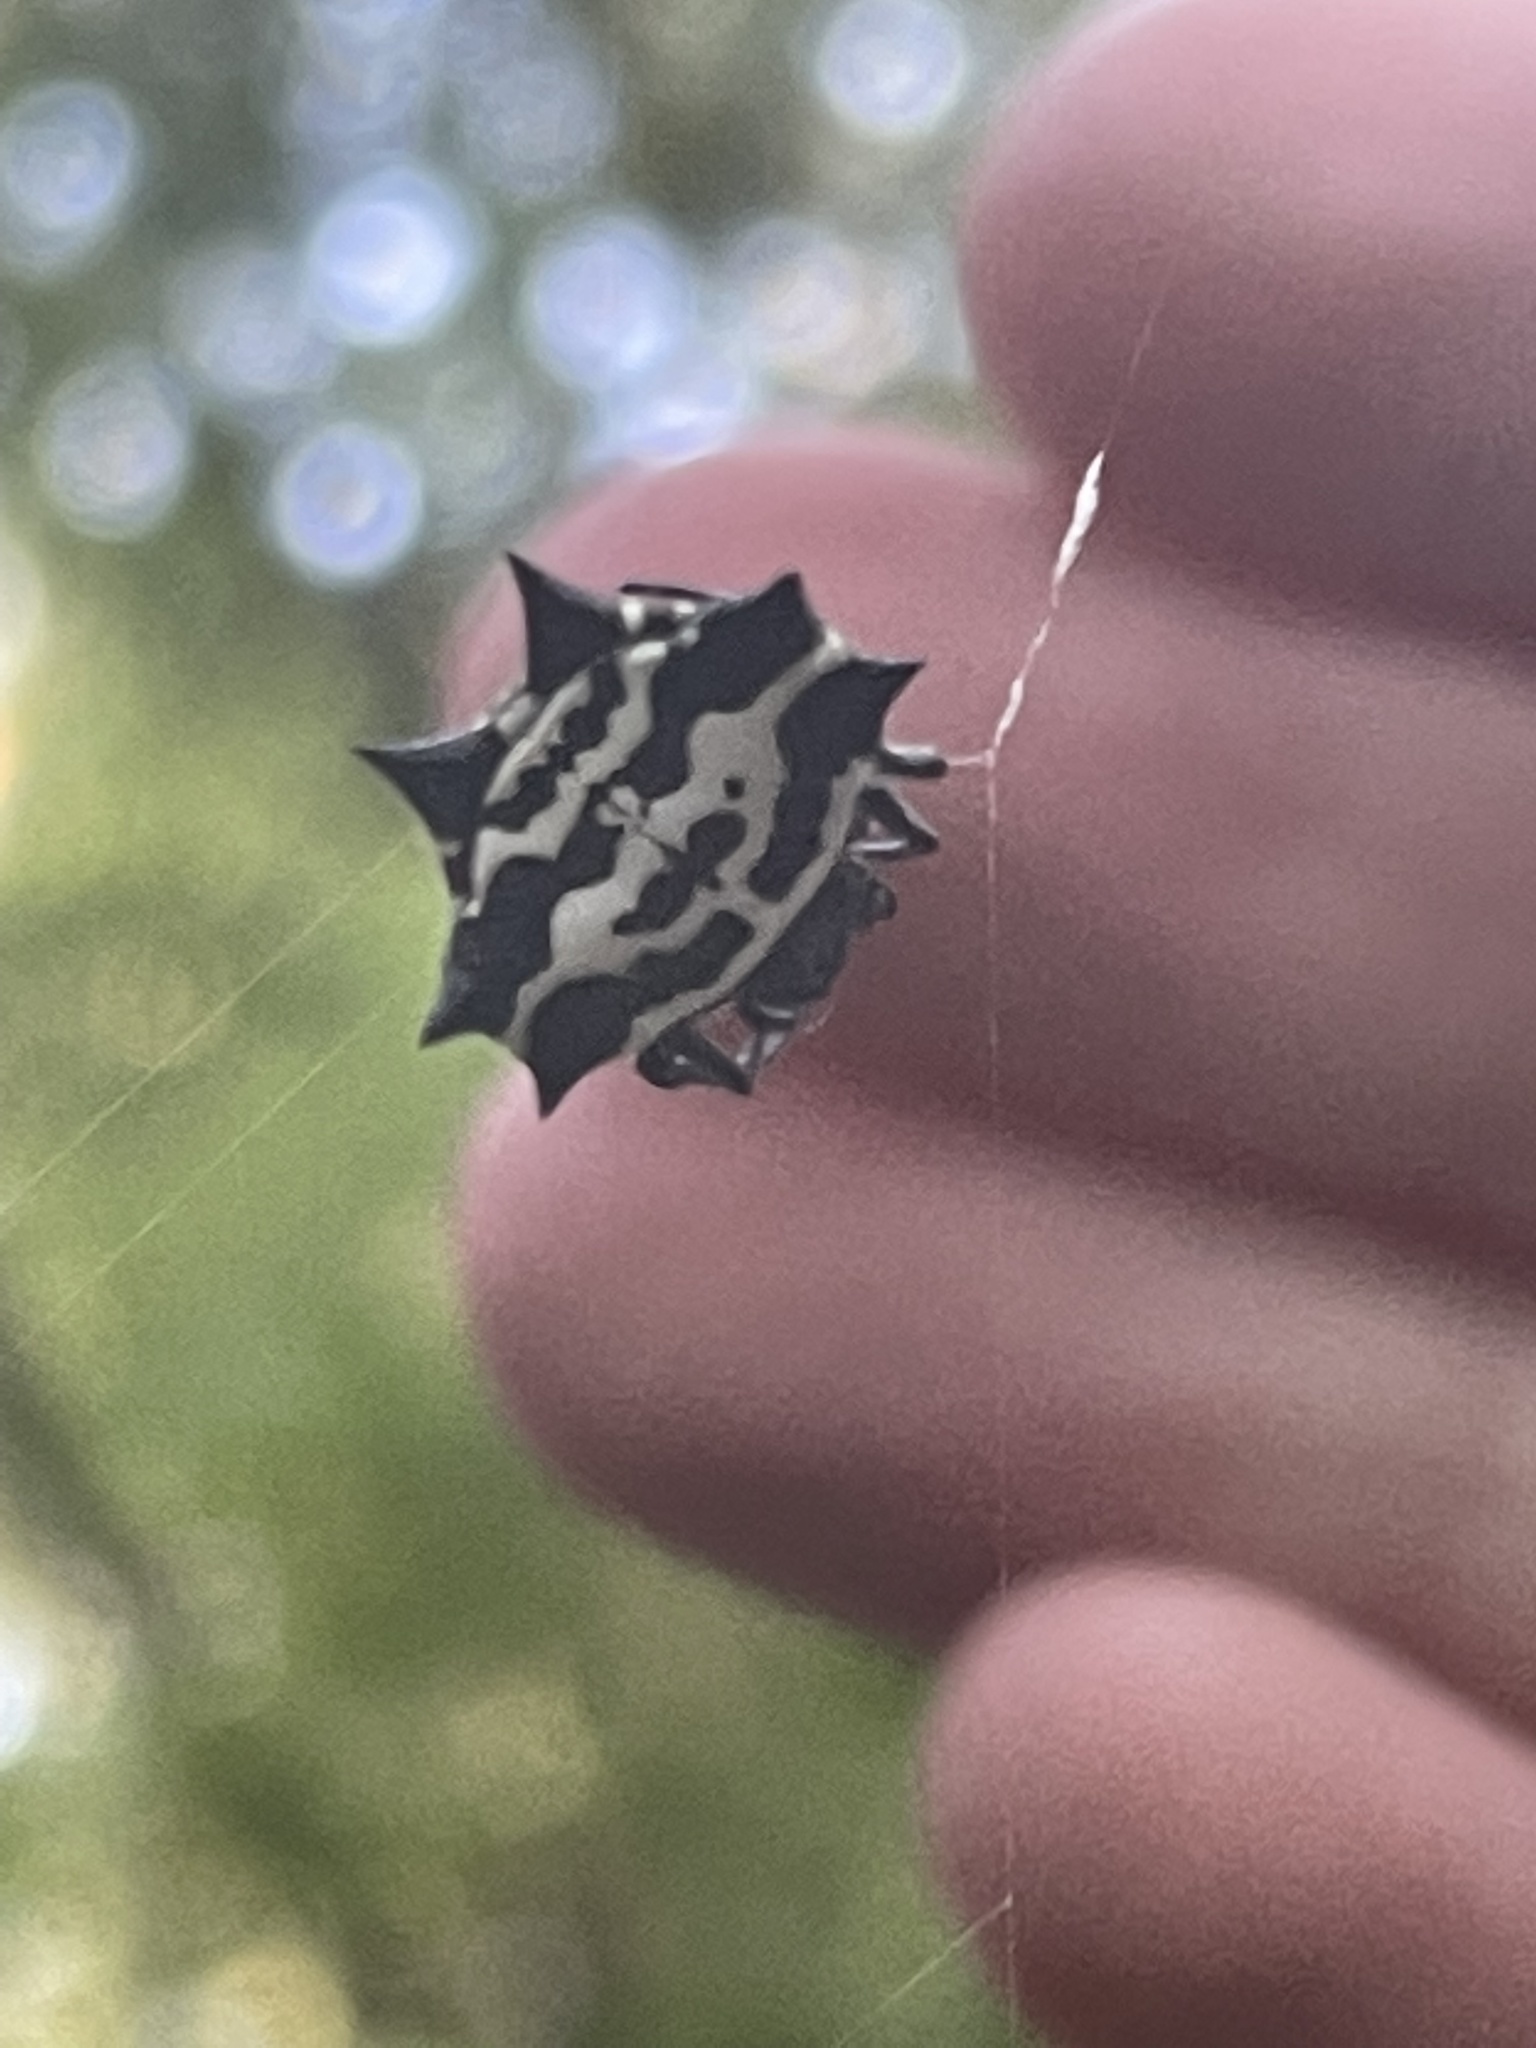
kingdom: Animalia
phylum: Arthropoda
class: Arachnida
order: Araneae
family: Araneidae
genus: Gasteracantha
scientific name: Gasteracantha cancriformis
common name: Orb weavers
